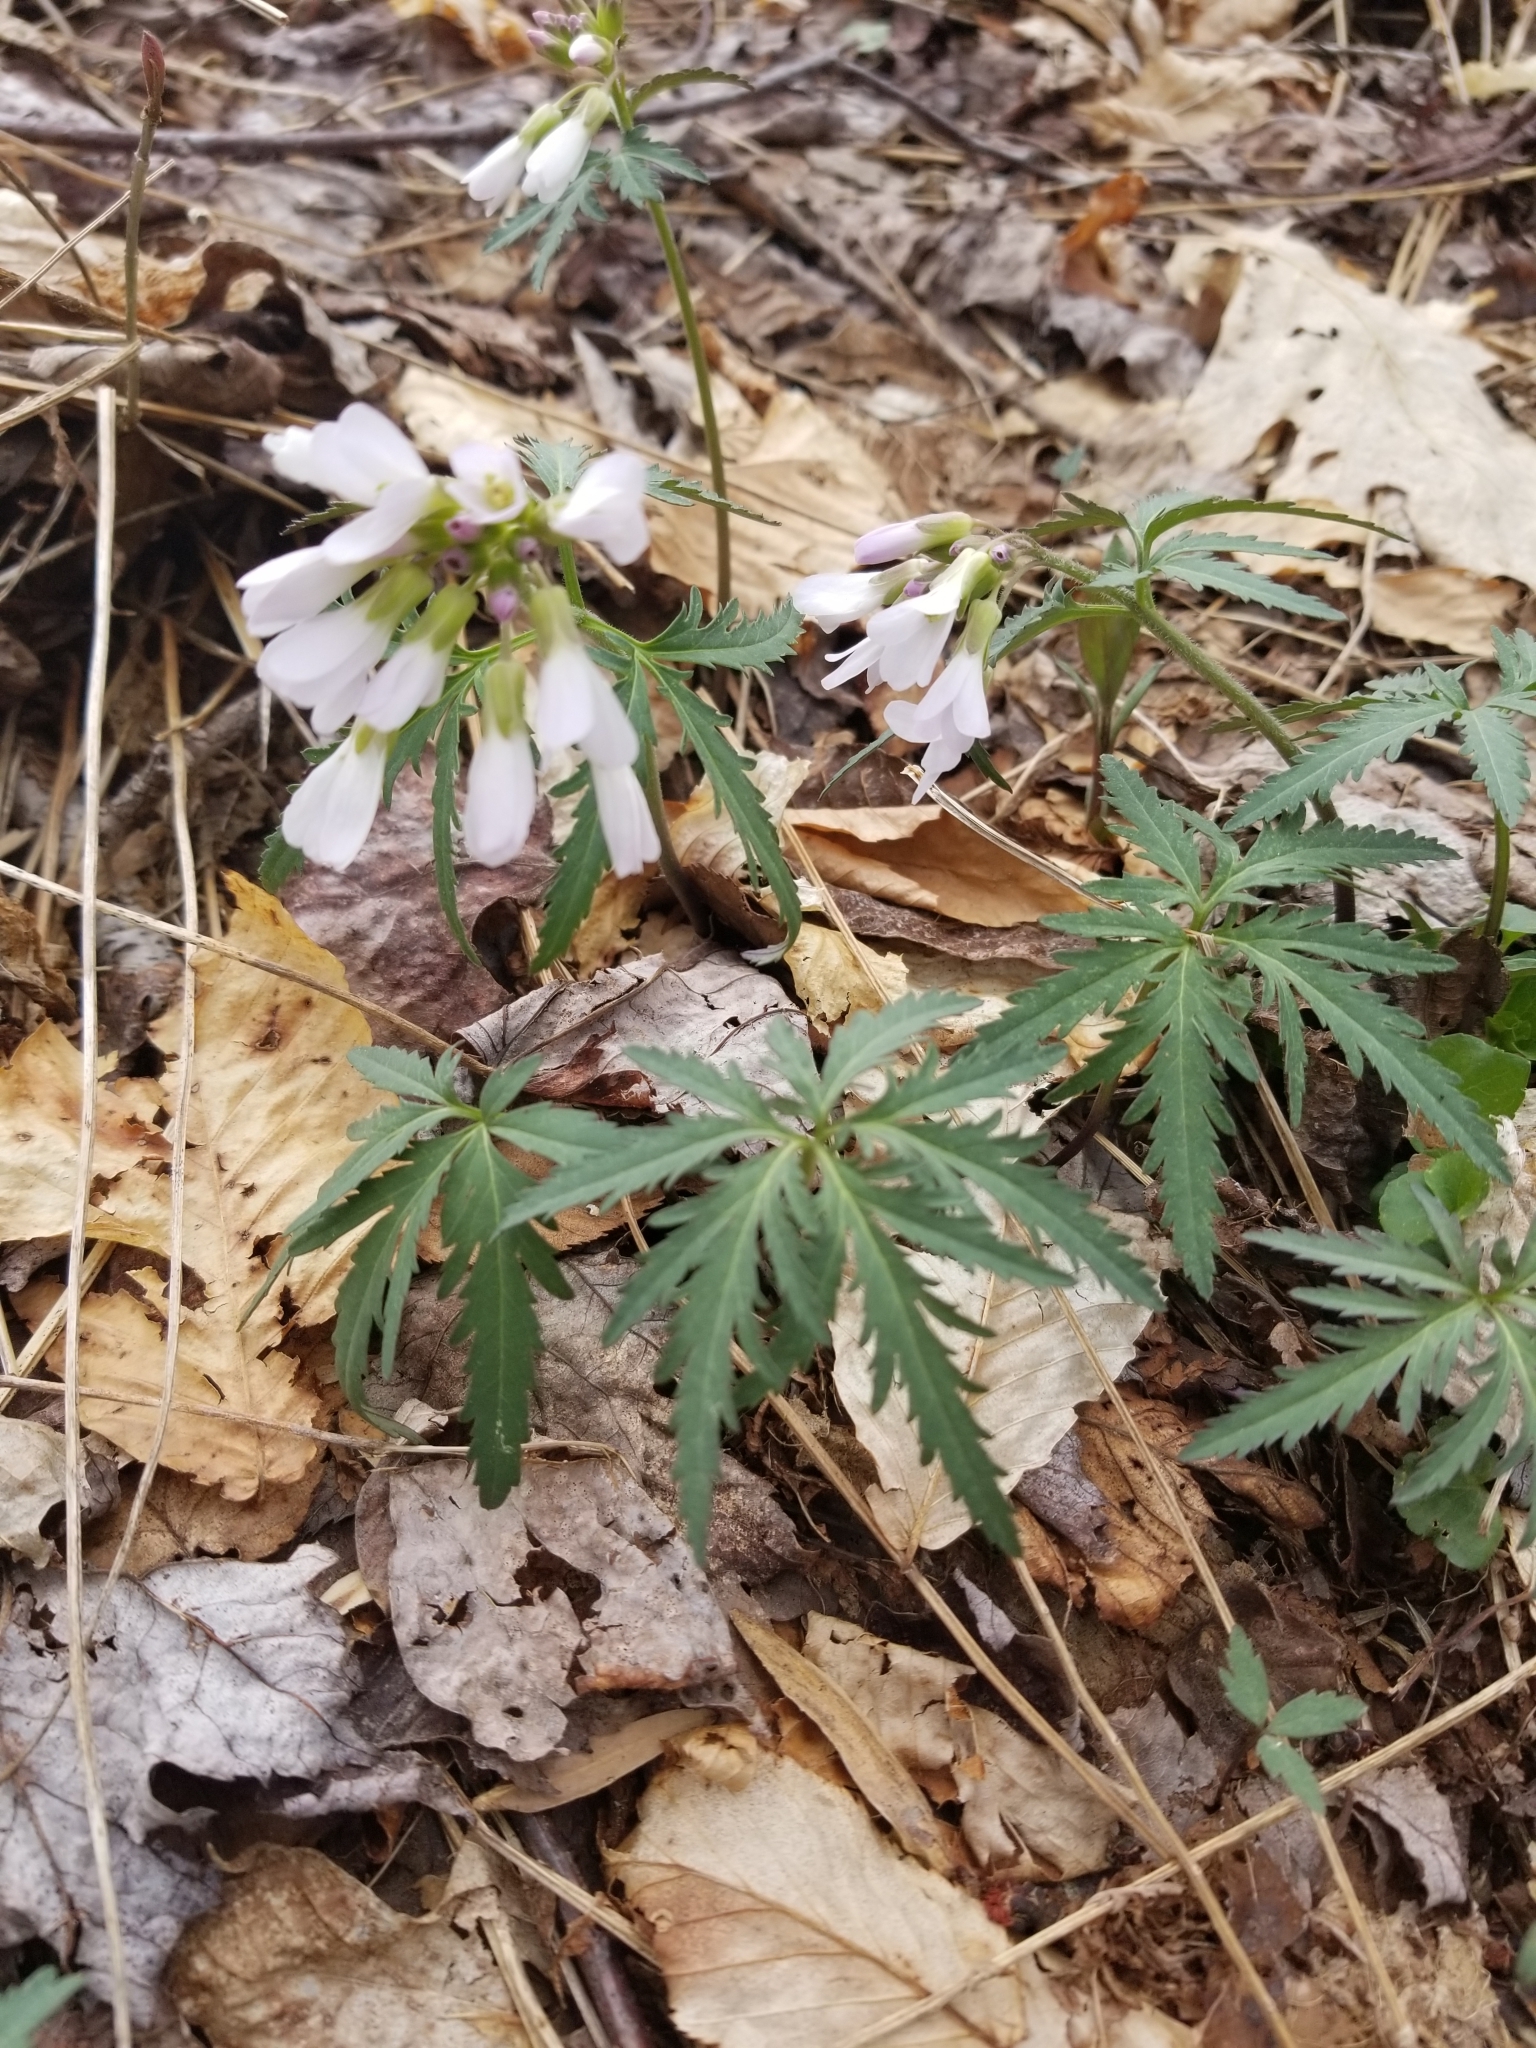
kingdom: Plantae
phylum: Tracheophyta
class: Magnoliopsida
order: Brassicales
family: Brassicaceae
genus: Cardamine
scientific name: Cardamine concatenata
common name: Cut-leaf toothcup
